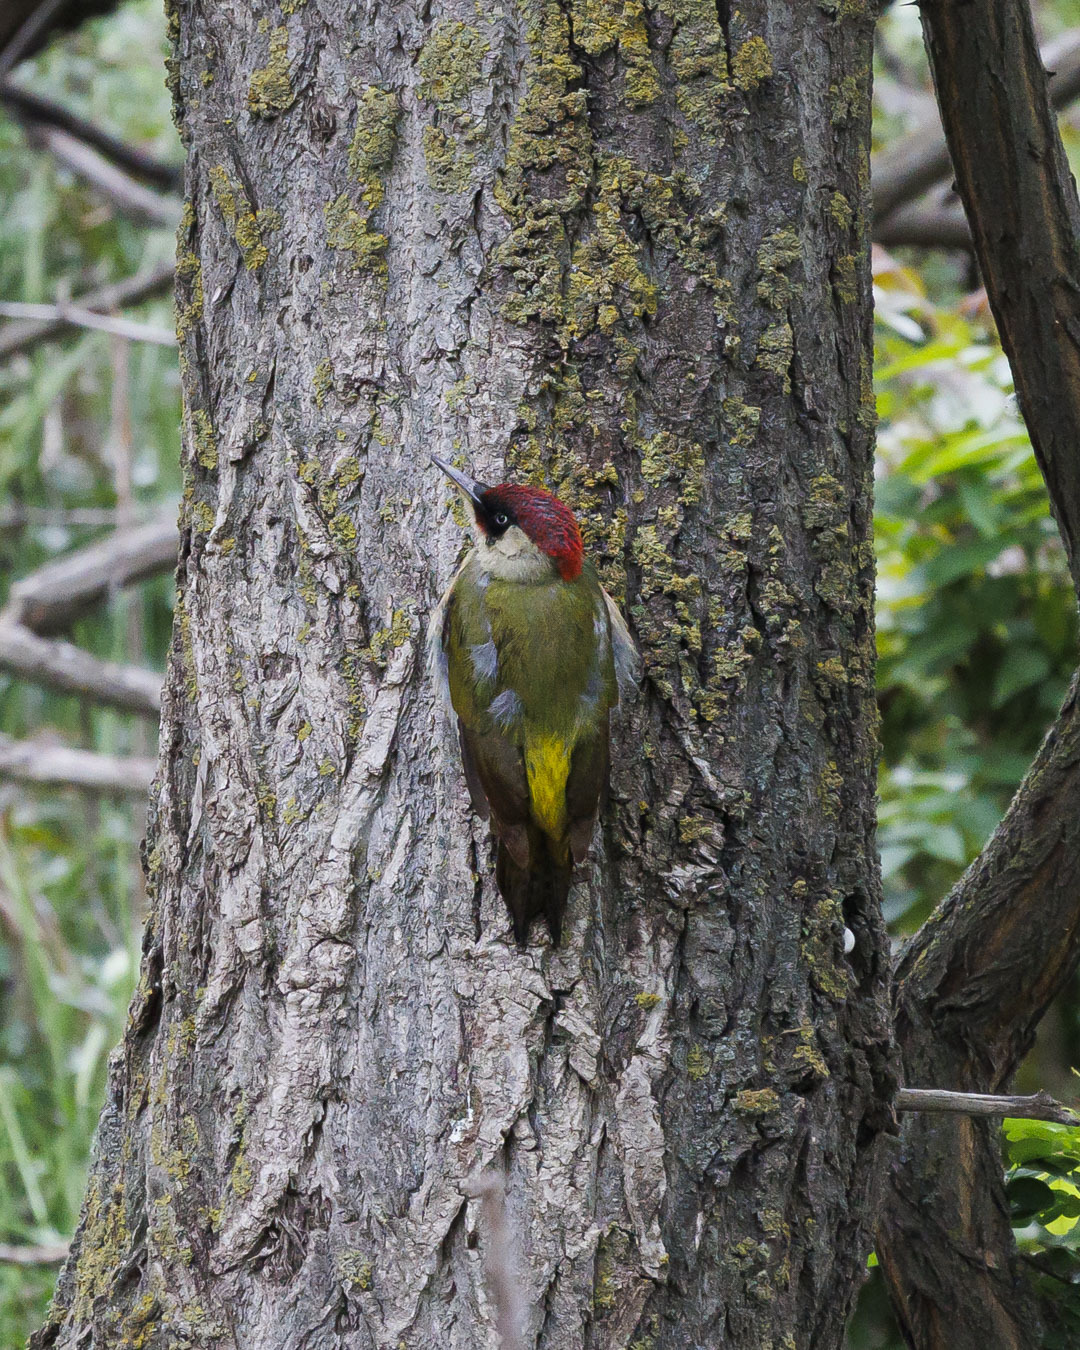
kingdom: Animalia
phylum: Chordata
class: Aves
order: Piciformes
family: Picidae
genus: Picus
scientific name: Picus viridis
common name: European green woodpecker
